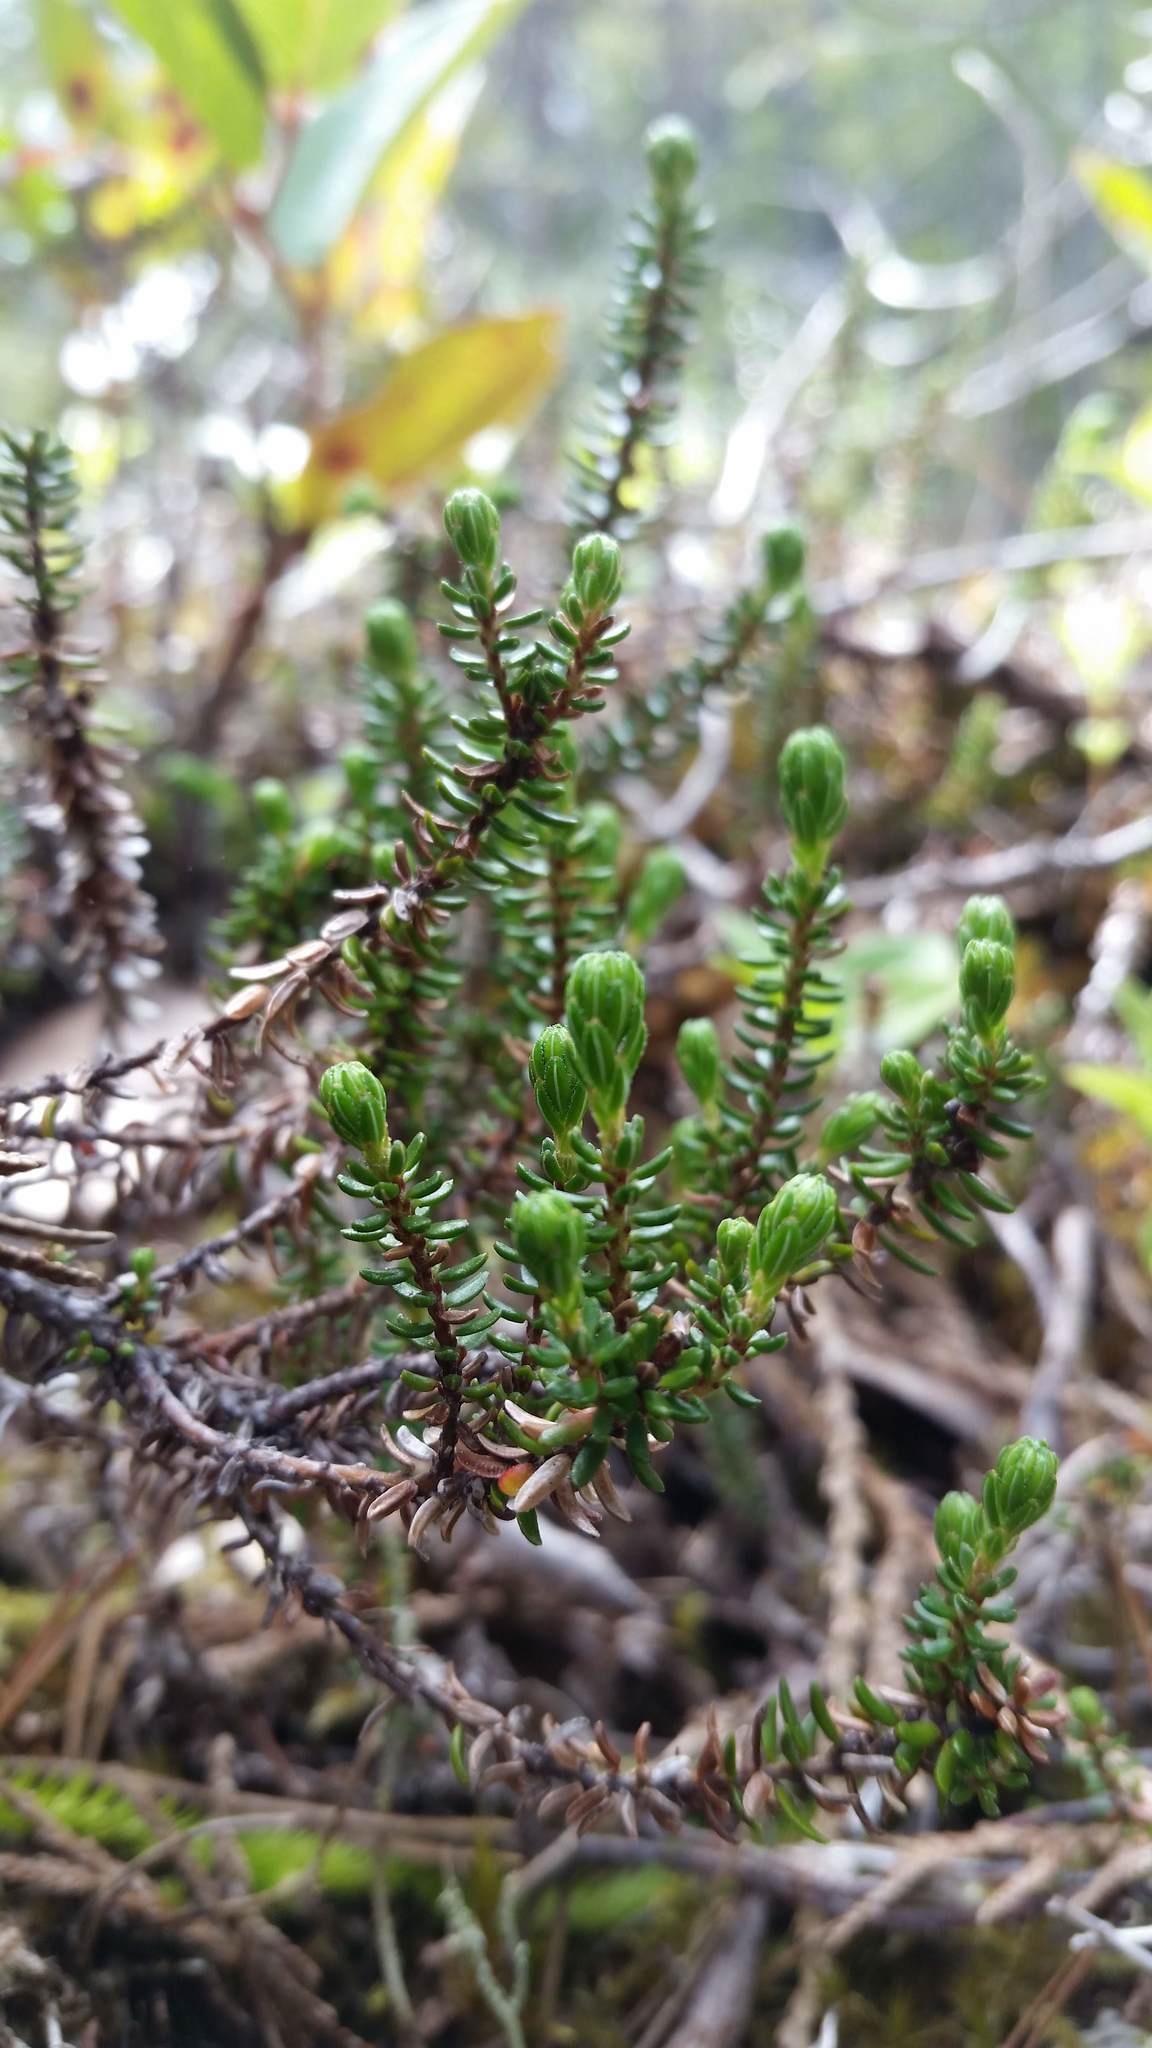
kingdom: Plantae
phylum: Tracheophyta
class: Magnoliopsida
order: Ericales
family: Ericaceae
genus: Empetrum
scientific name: Empetrum nigrum
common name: Black crowberry
